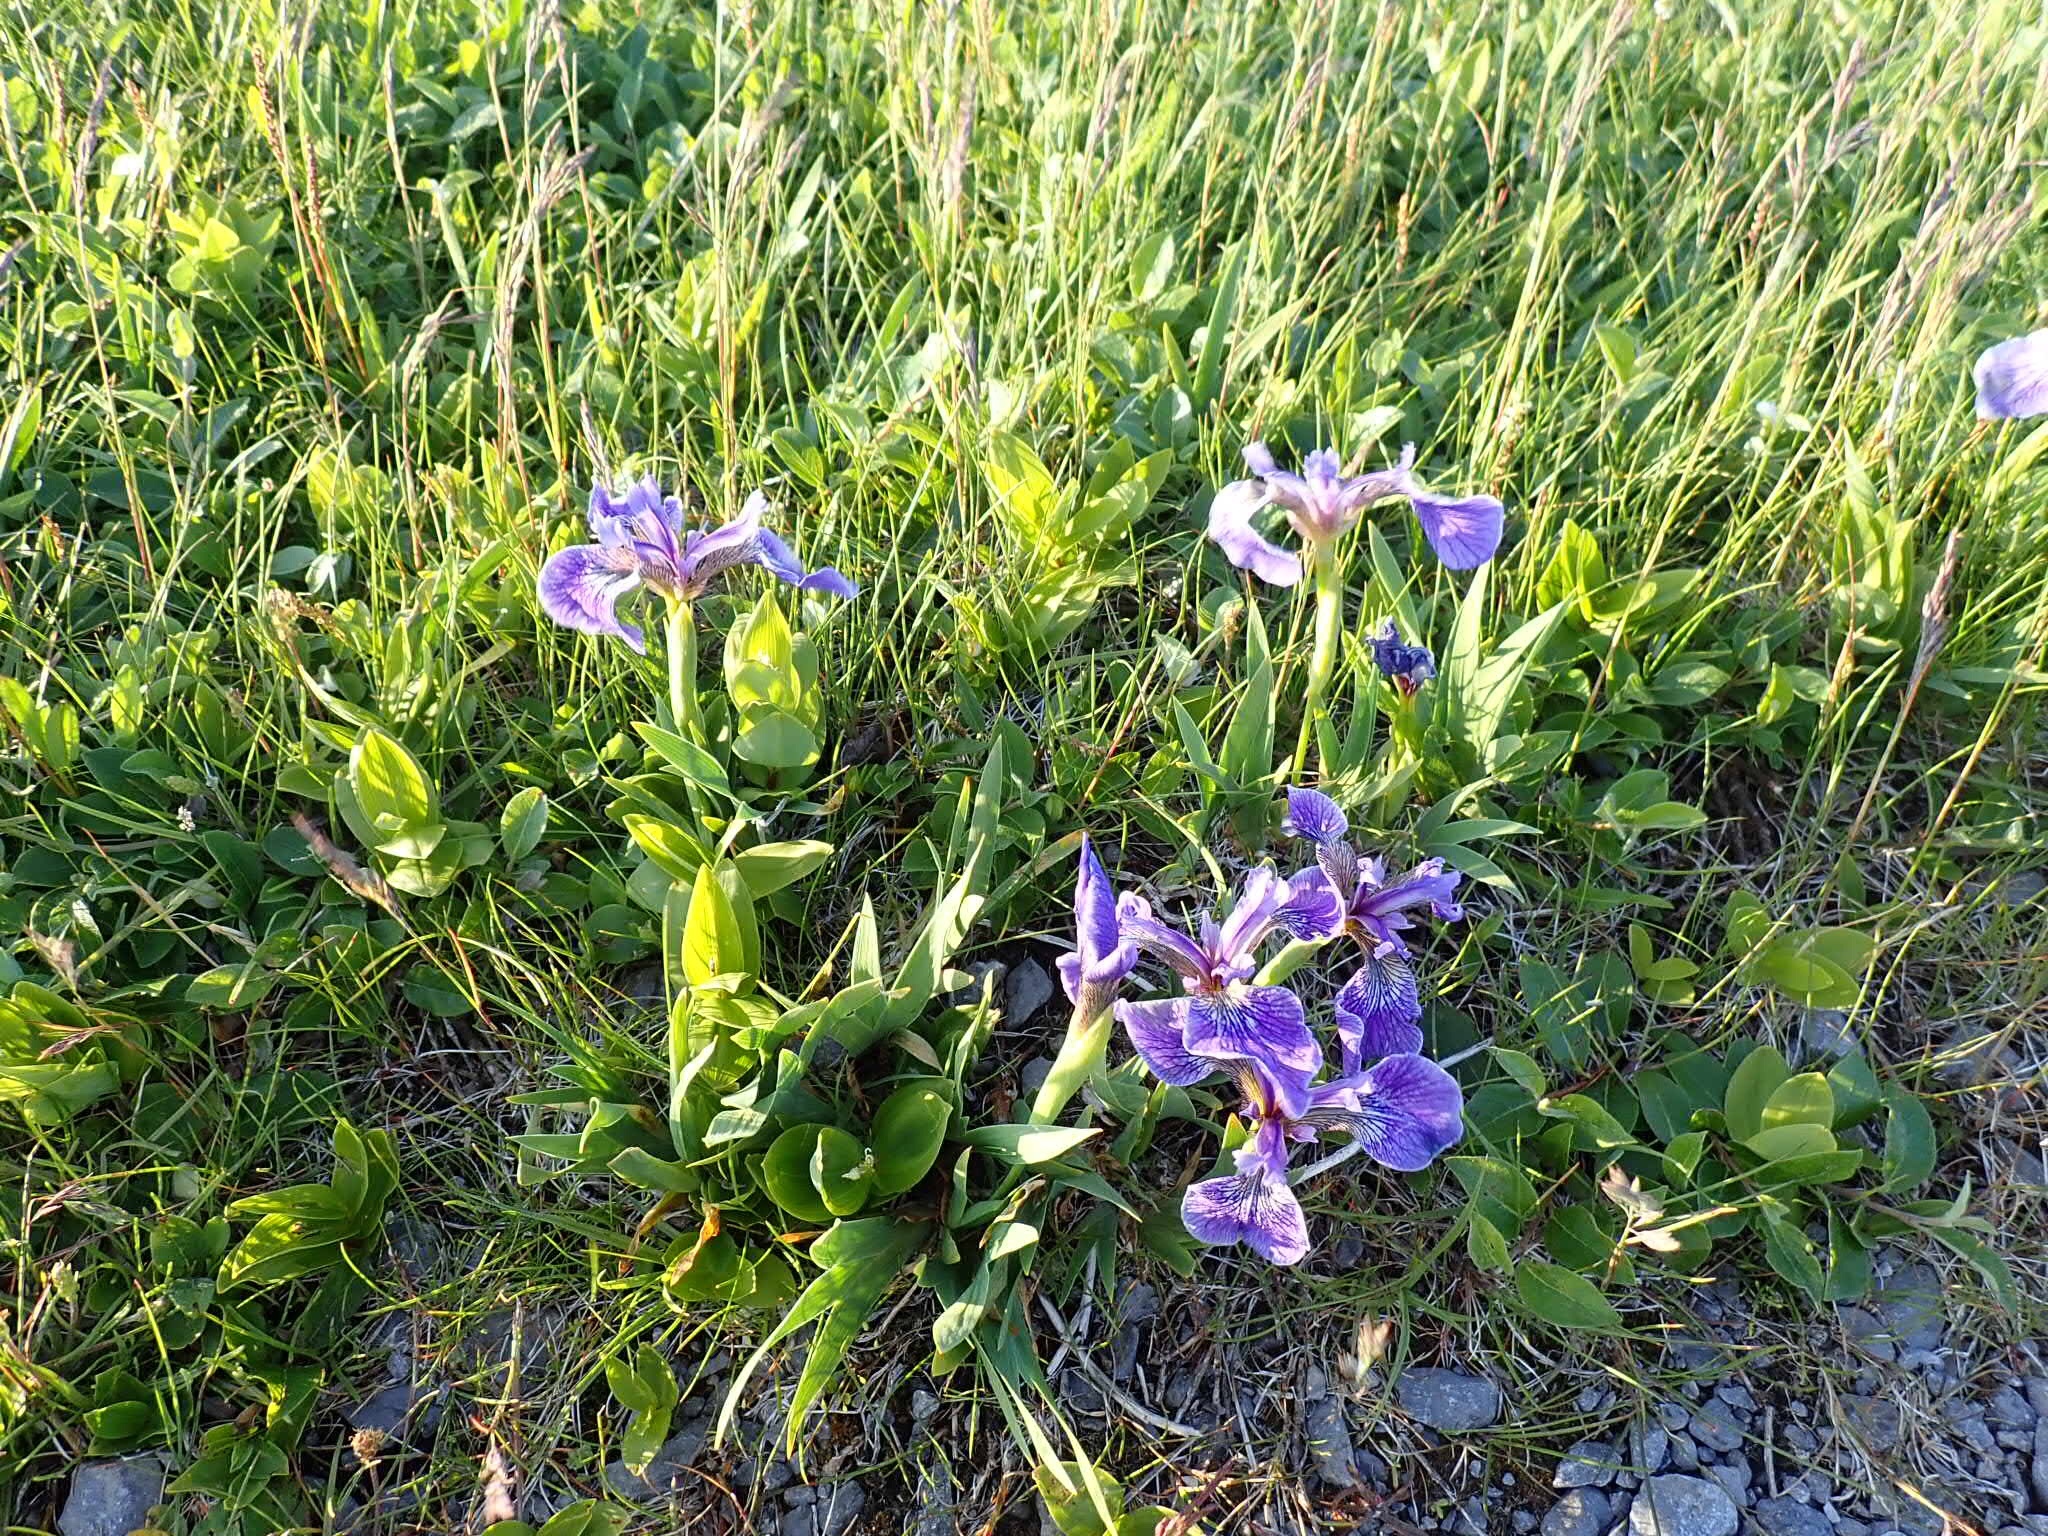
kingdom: Plantae
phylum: Tracheophyta
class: Liliopsida
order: Asparagales
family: Iridaceae
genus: Iris
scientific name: Iris hookeri
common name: Canada beach-head iris
